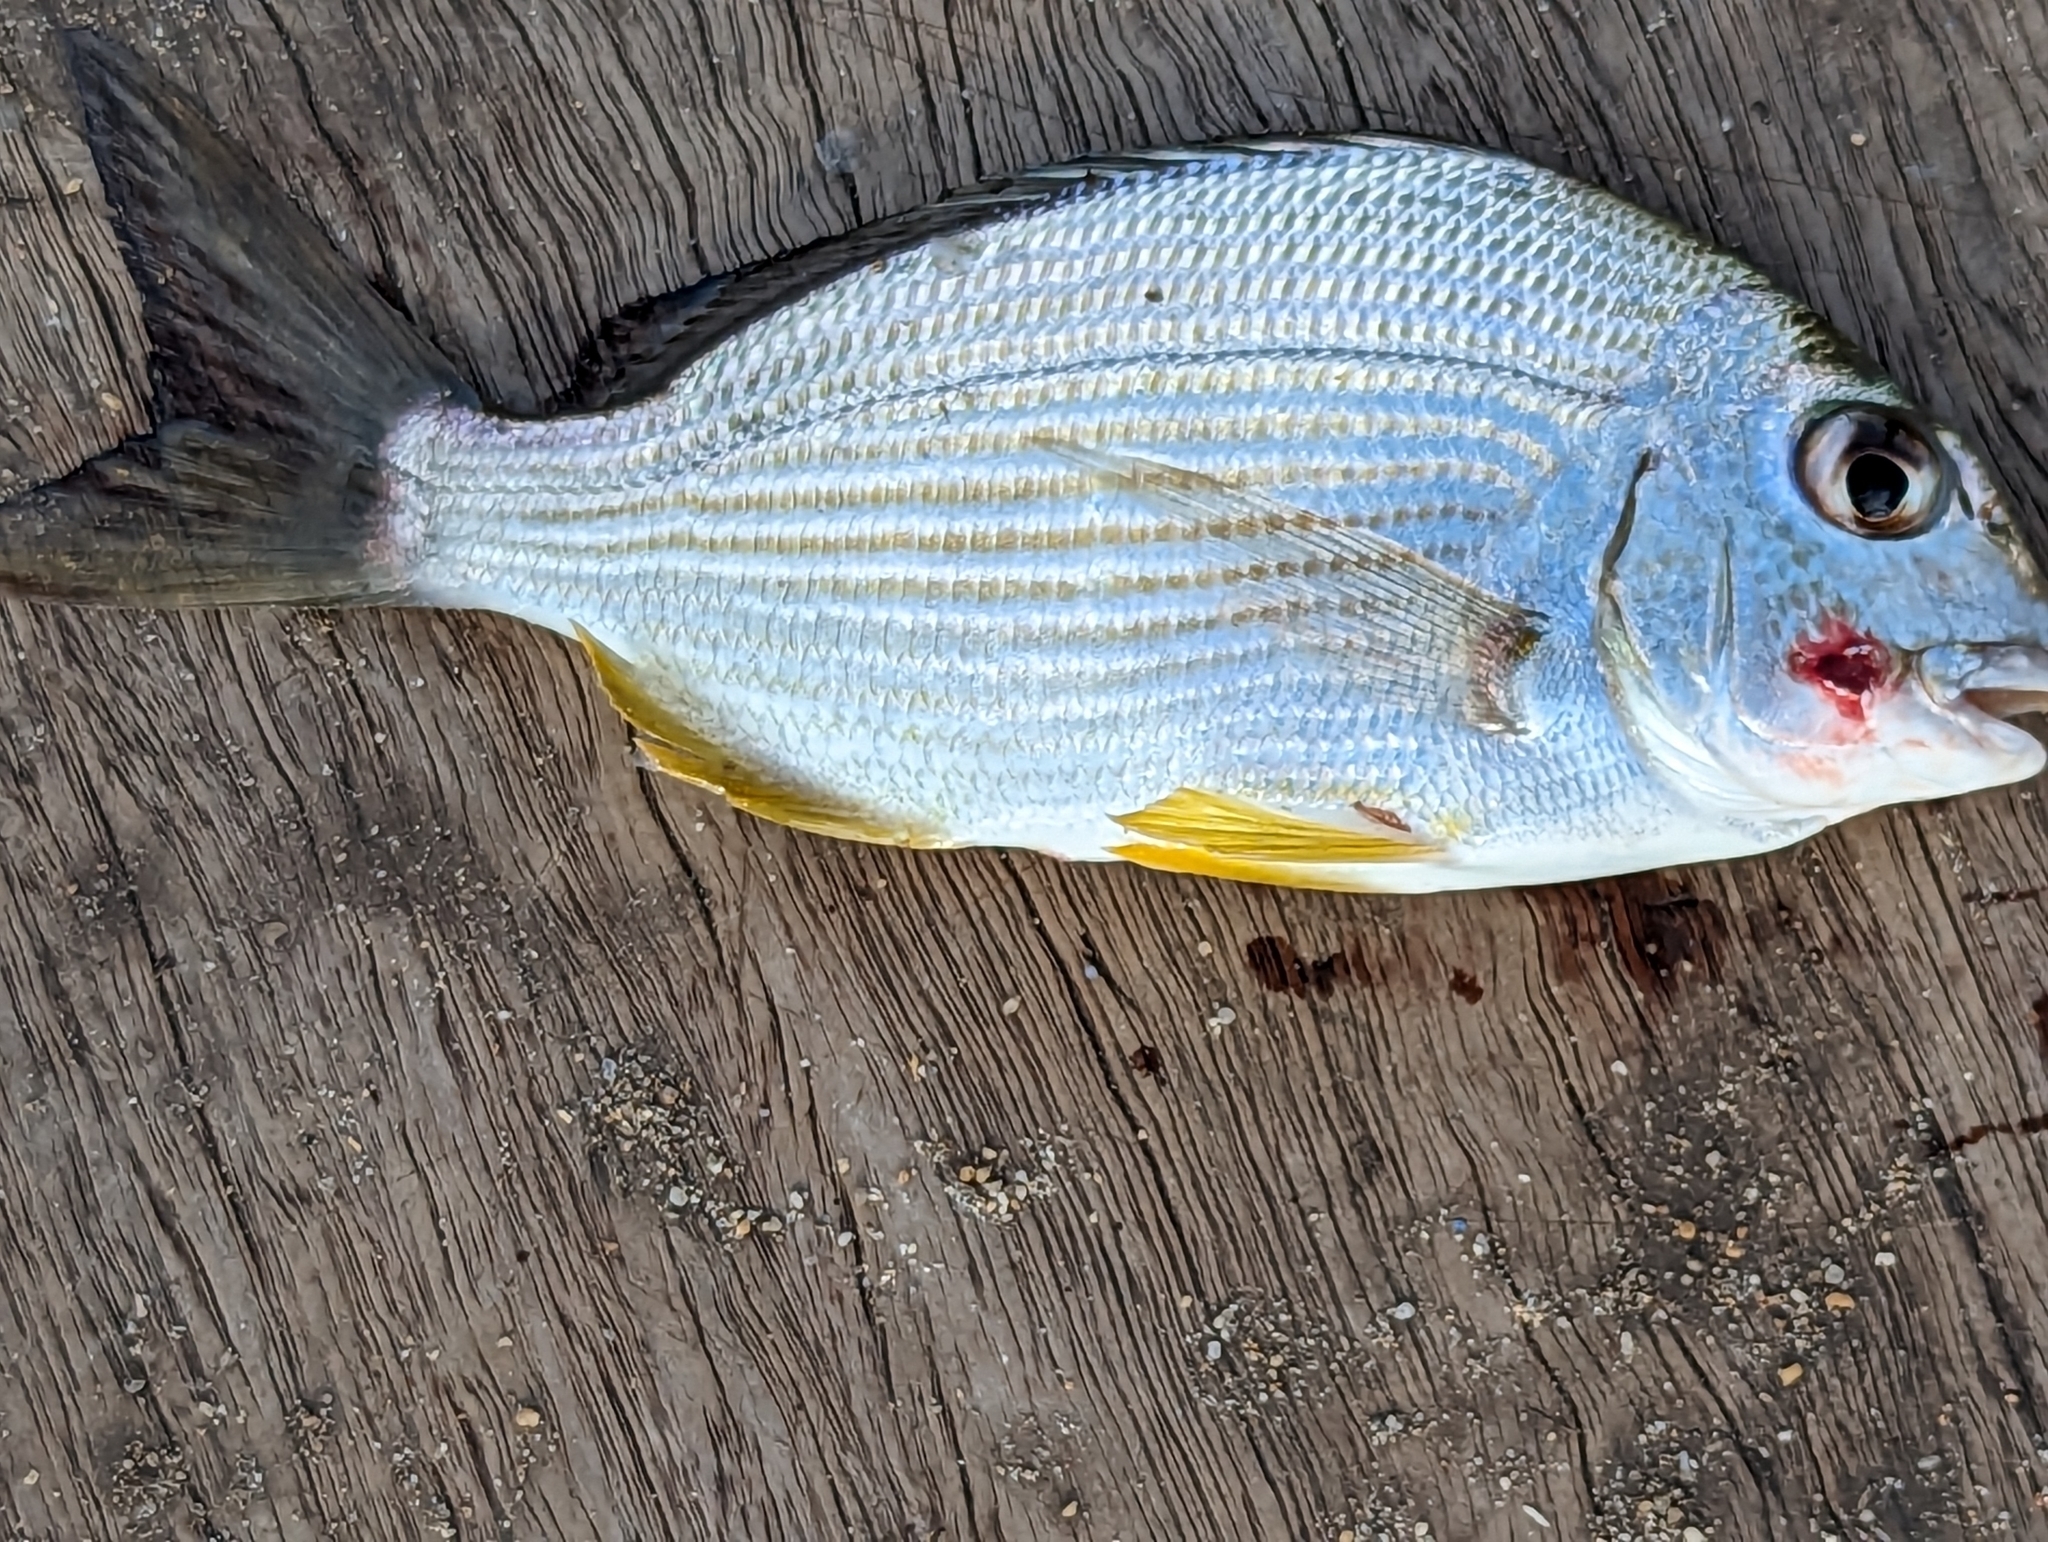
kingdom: Animalia
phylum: Chordata
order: Perciformes
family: Sparidae
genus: Rhabdosargus
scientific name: Rhabdosargus sarba
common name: Goldlined seabream
